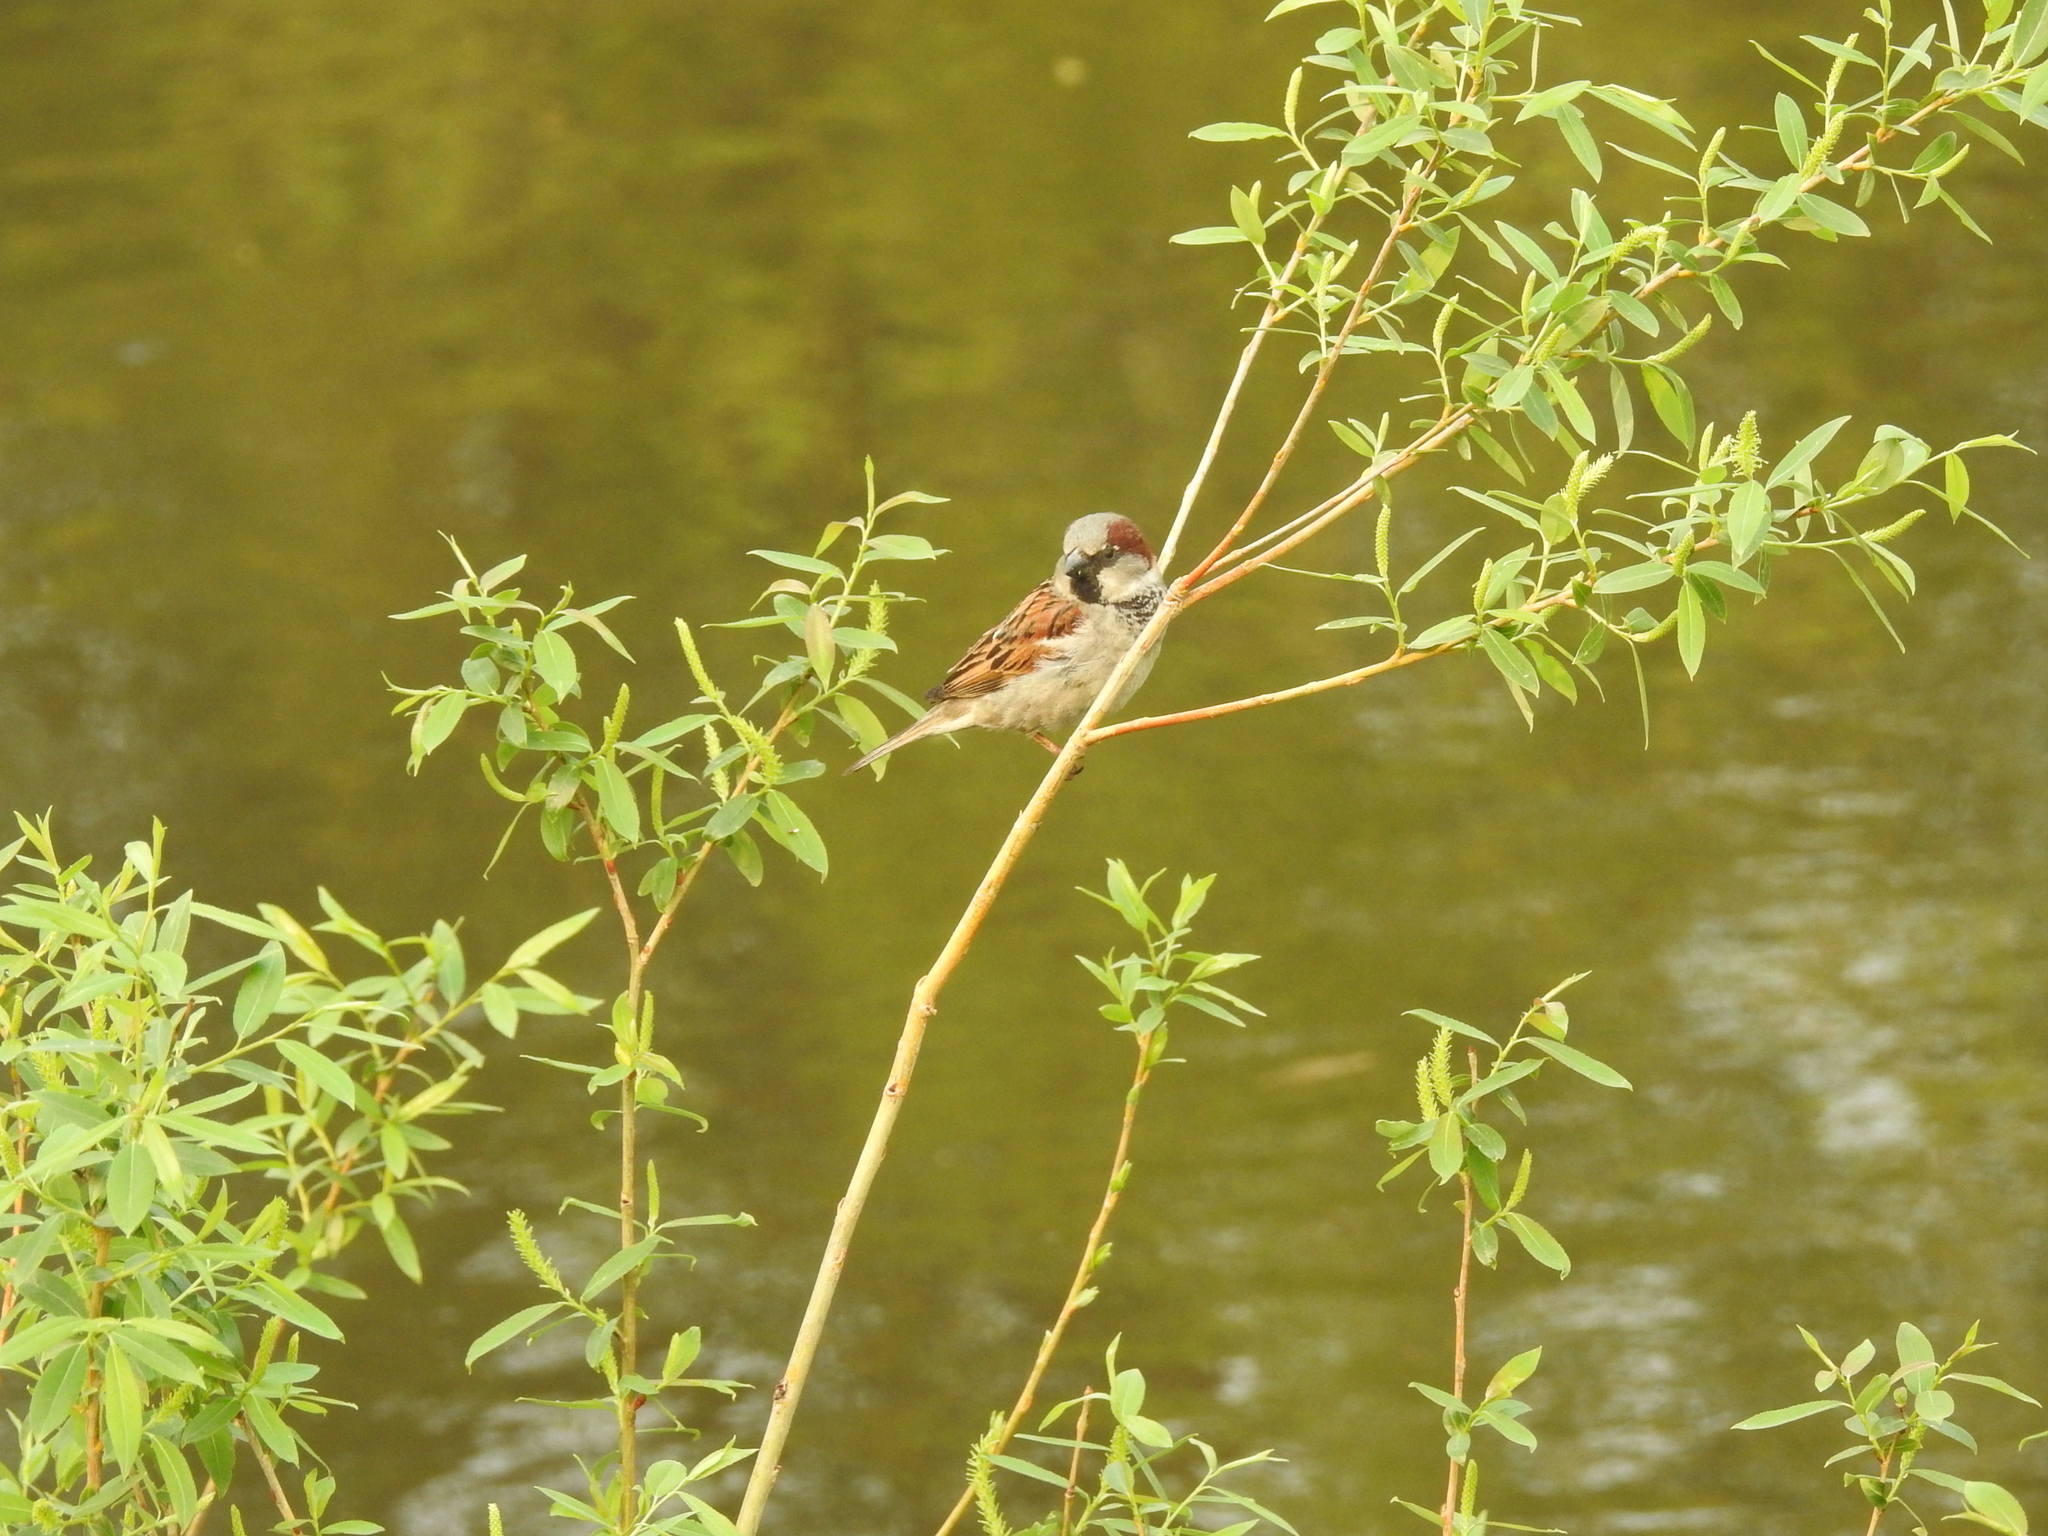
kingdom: Animalia
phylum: Chordata
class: Aves
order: Passeriformes
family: Passeridae
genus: Passer
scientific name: Passer domesticus
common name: House sparrow
